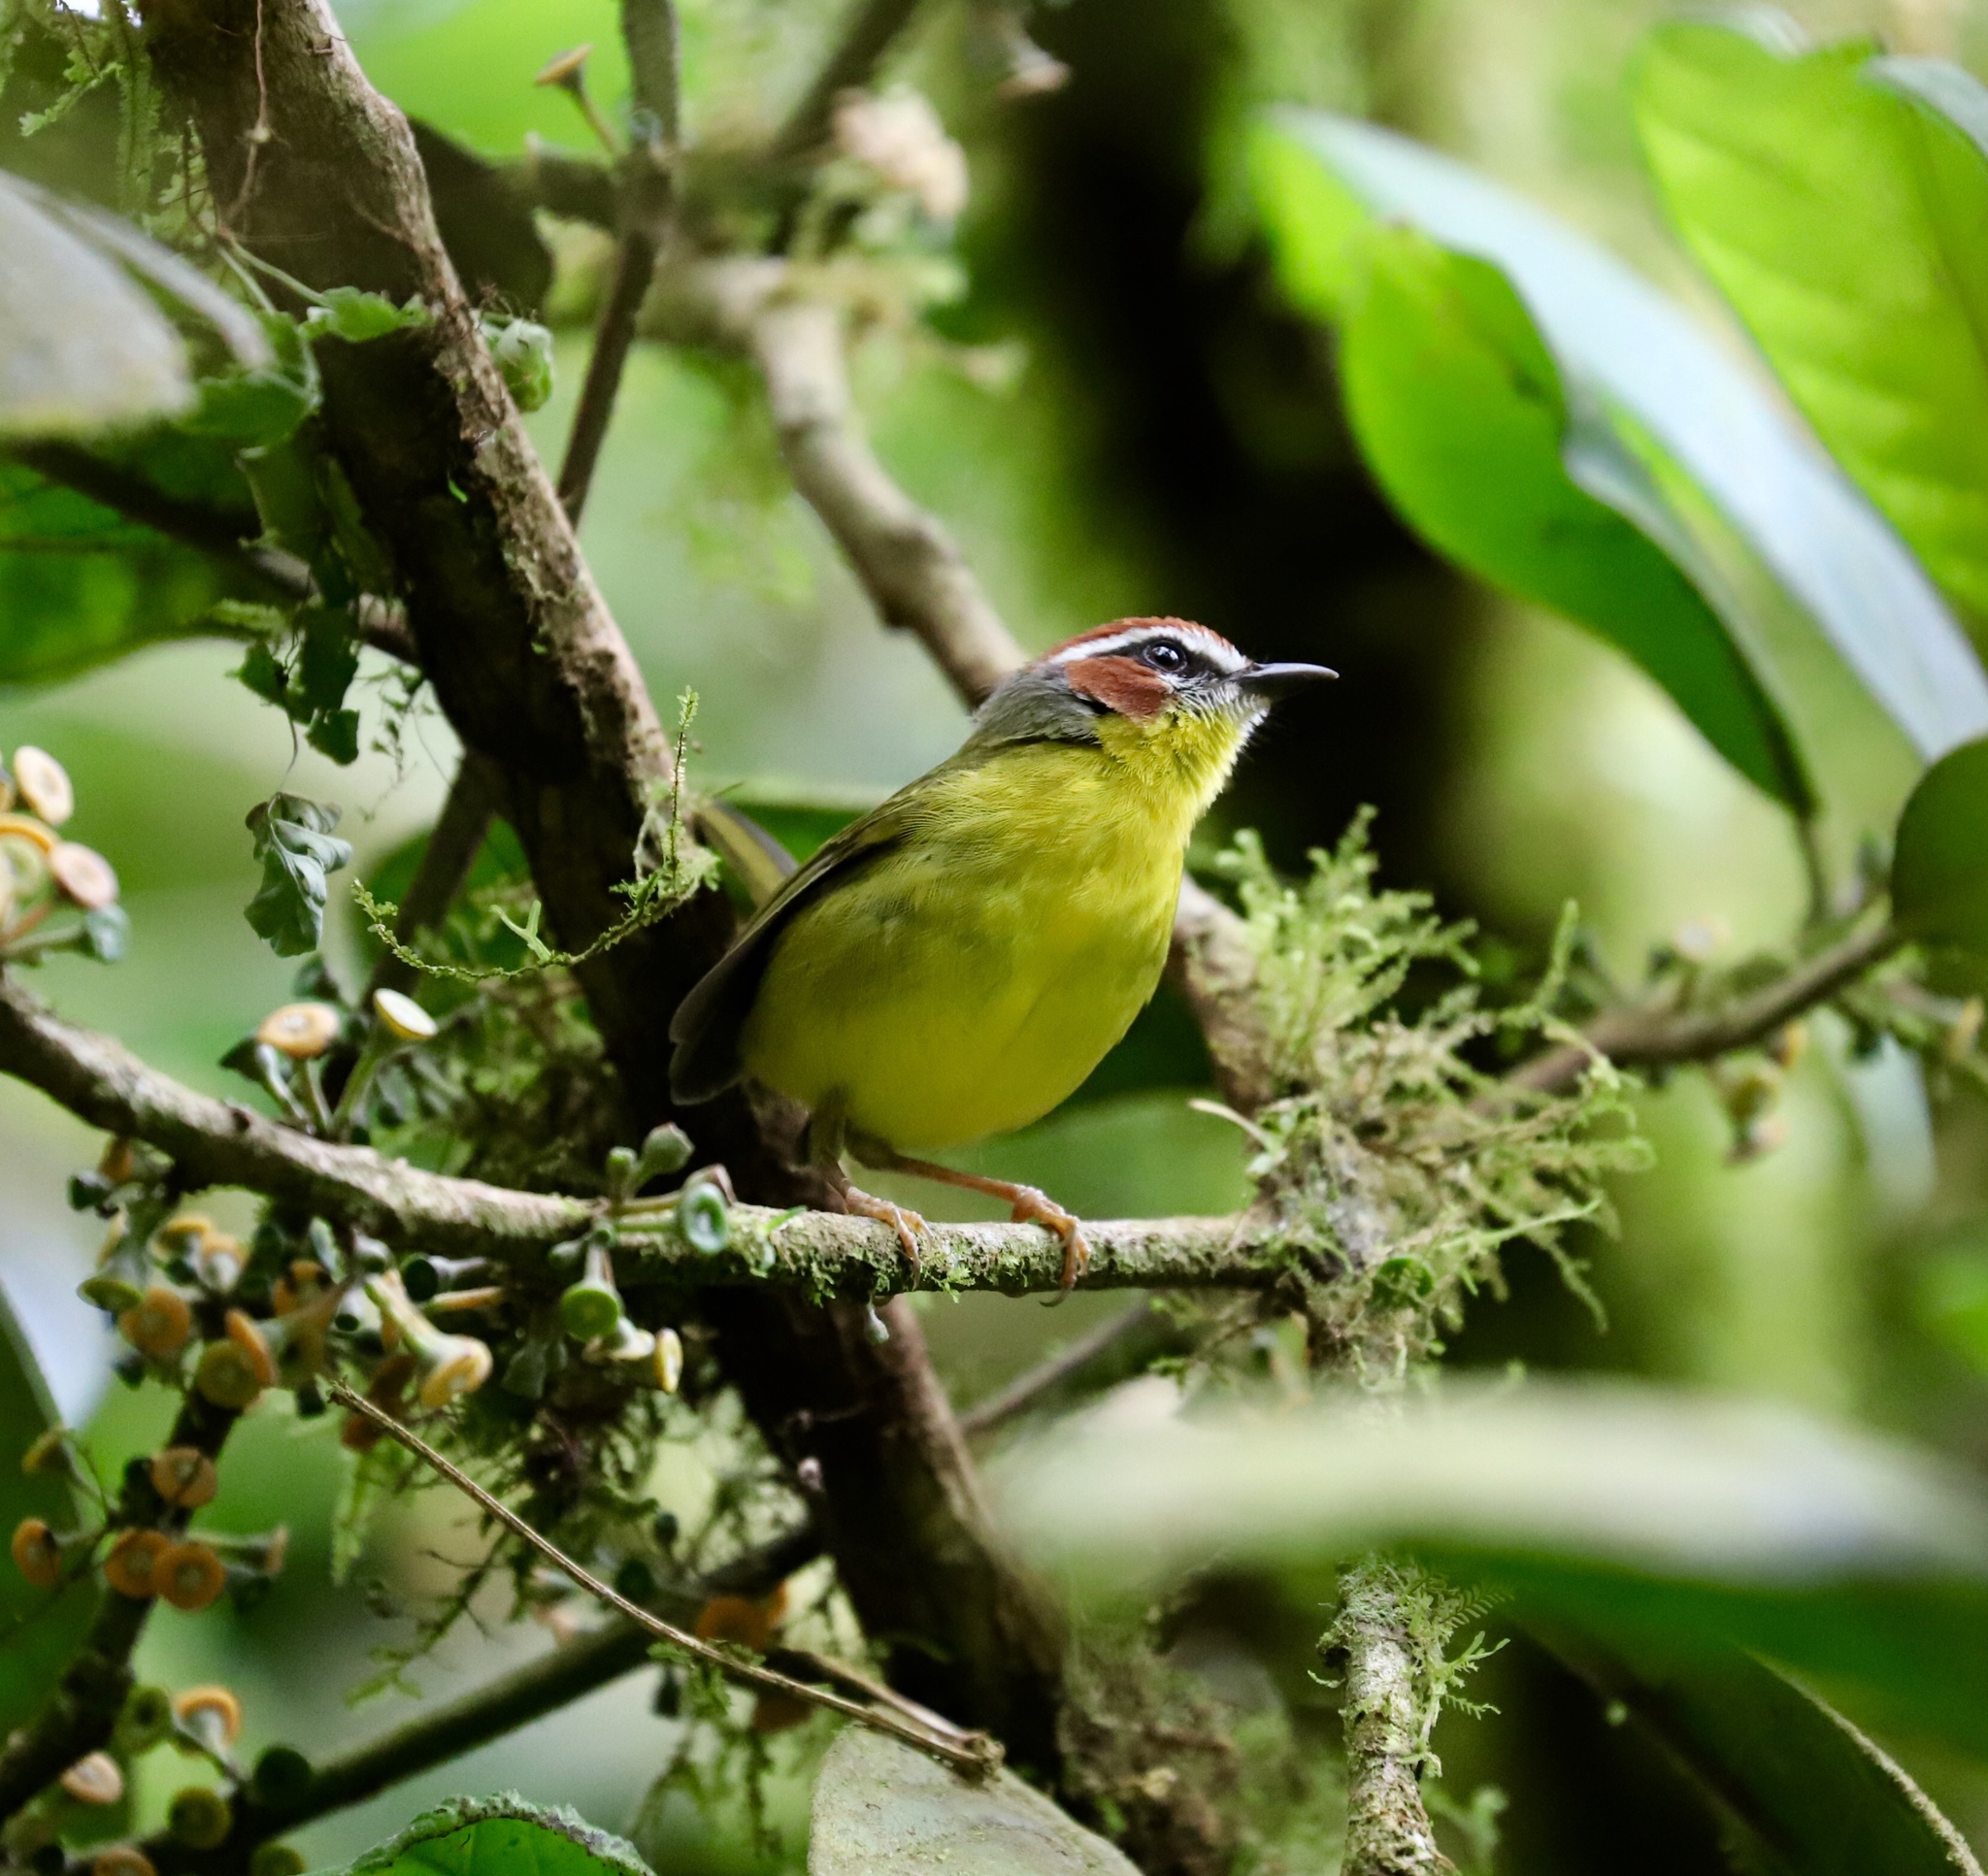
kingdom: Animalia
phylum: Chordata
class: Aves
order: Passeriformes
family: Parulidae
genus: Basileuterus
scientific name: Basileuterus rufifrons
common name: Rufous-capped warbler
